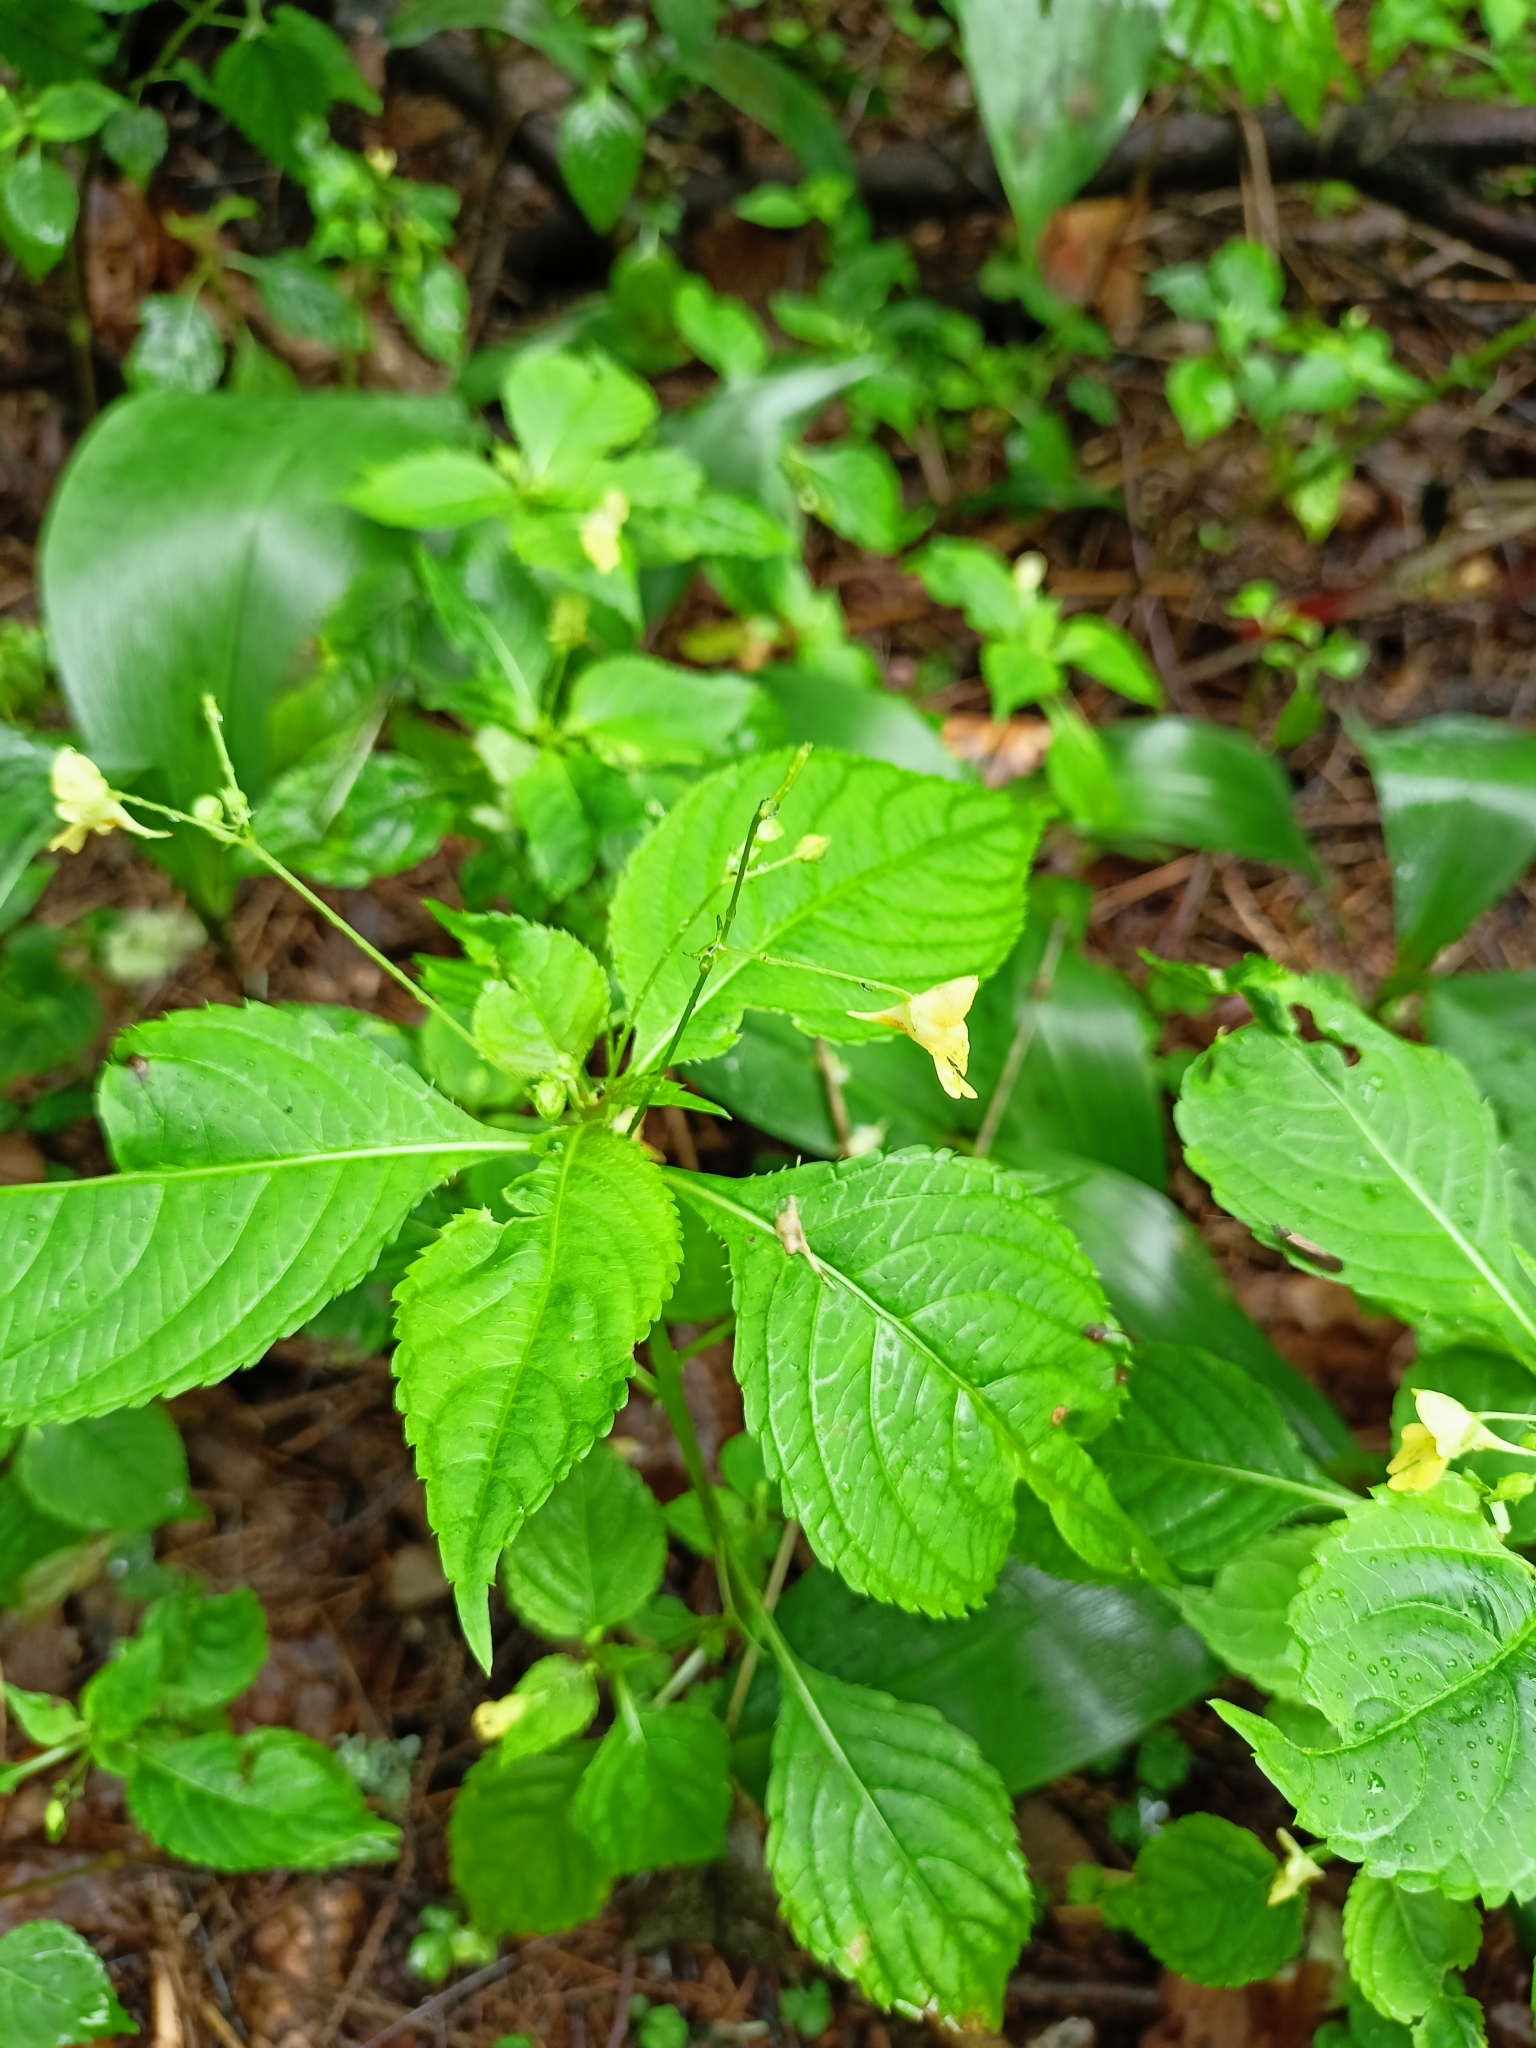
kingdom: Plantae
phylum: Tracheophyta
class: Magnoliopsida
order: Ericales
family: Balsaminaceae
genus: Impatiens
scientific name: Impatiens parviflora
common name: Small balsam
